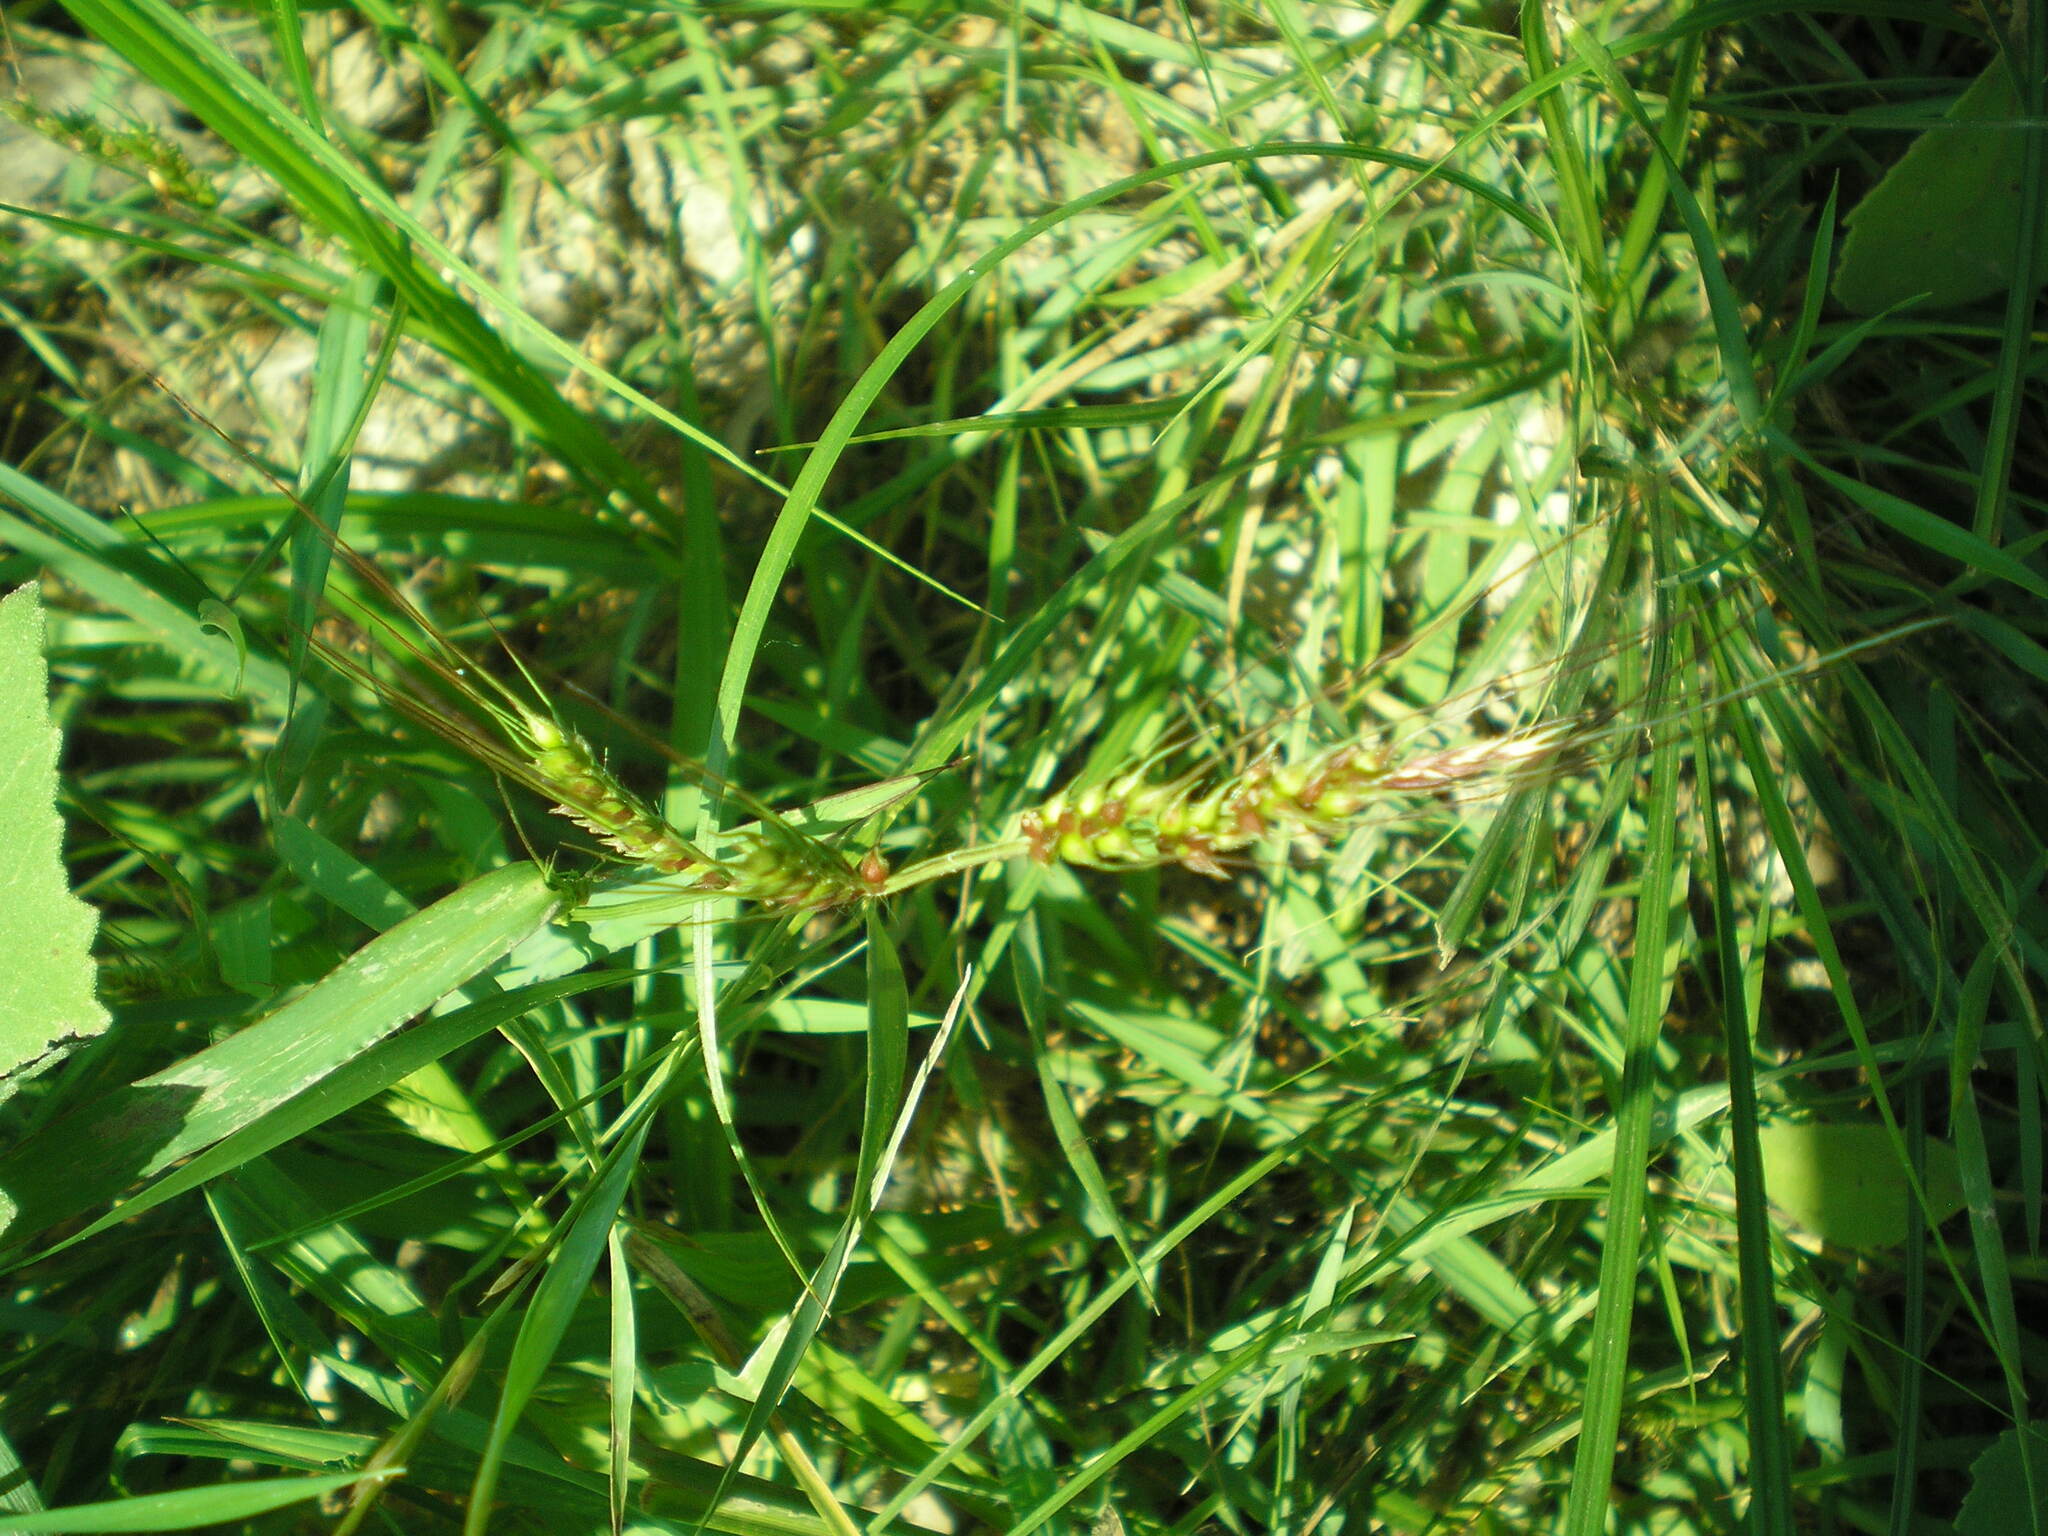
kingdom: Plantae
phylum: Tracheophyta
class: Liliopsida
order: Poales
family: Poaceae
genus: Echinochloa
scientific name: Echinochloa crus-galli
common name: Cockspur
